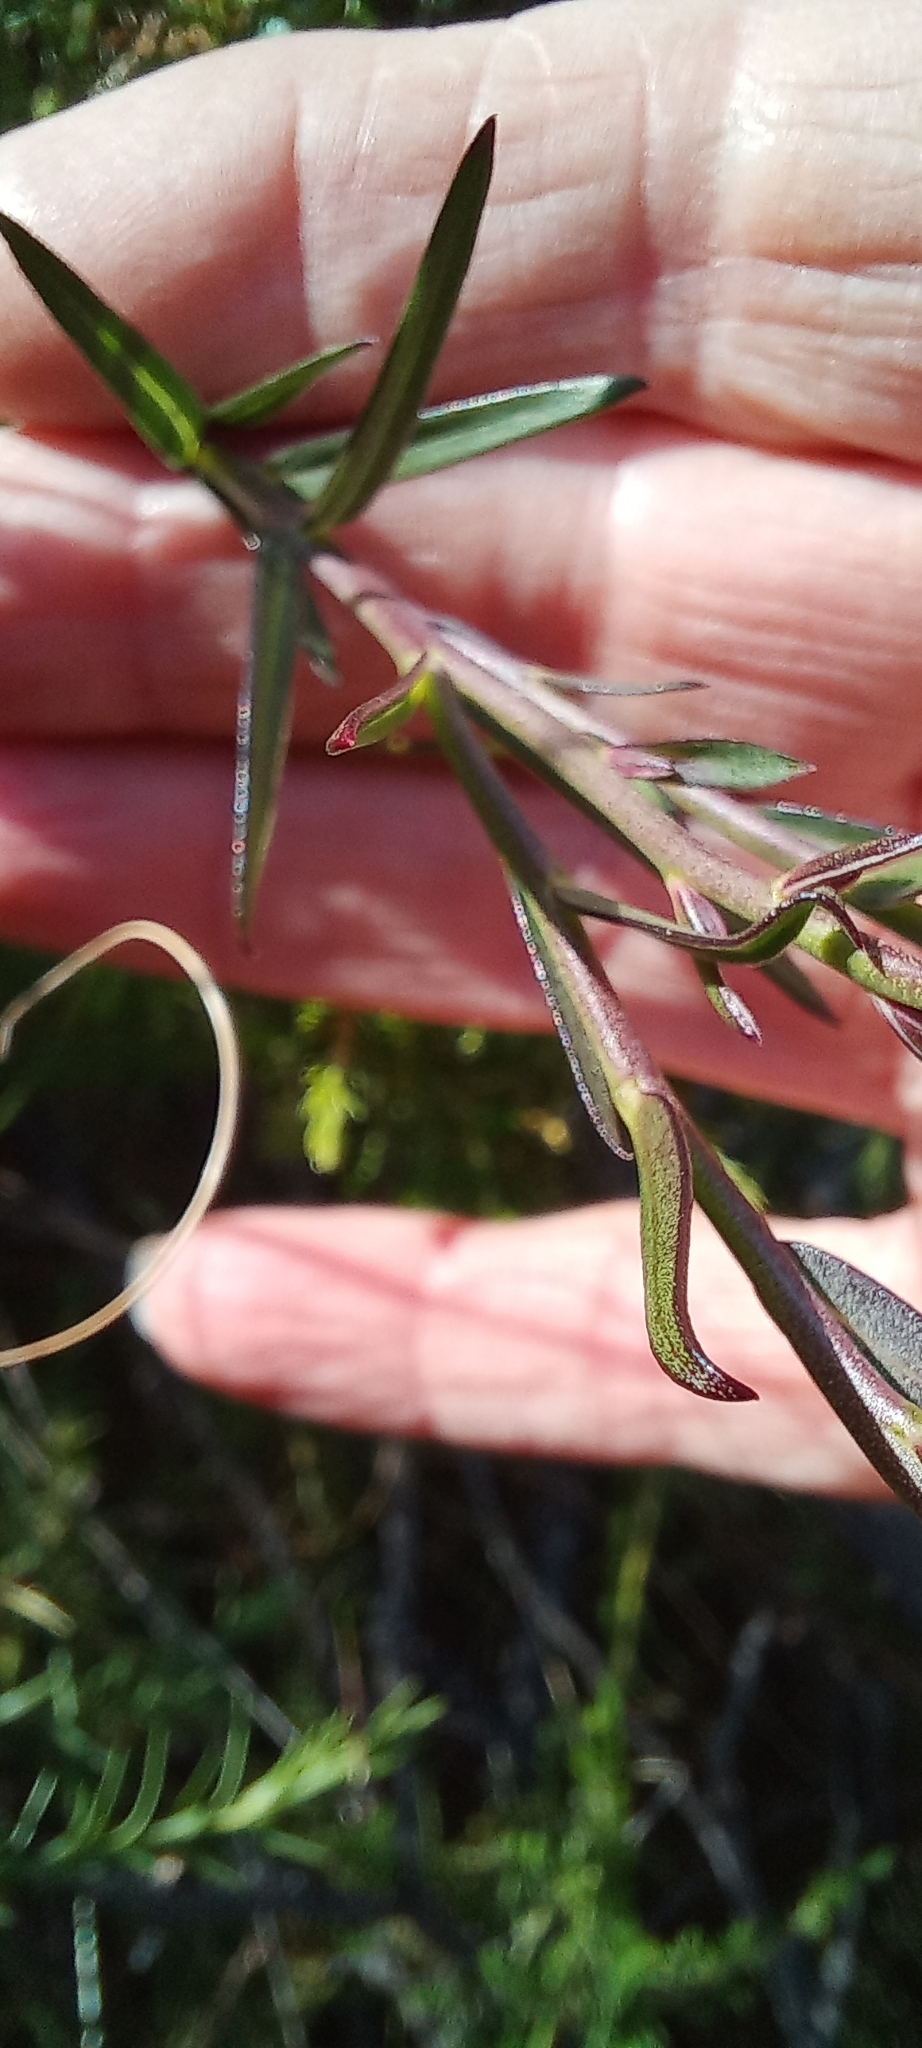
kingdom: Plantae
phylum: Tracheophyta
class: Magnoliopsida
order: Fabales
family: Polygalaceae
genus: Polygala
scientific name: Polygala bracteolata
